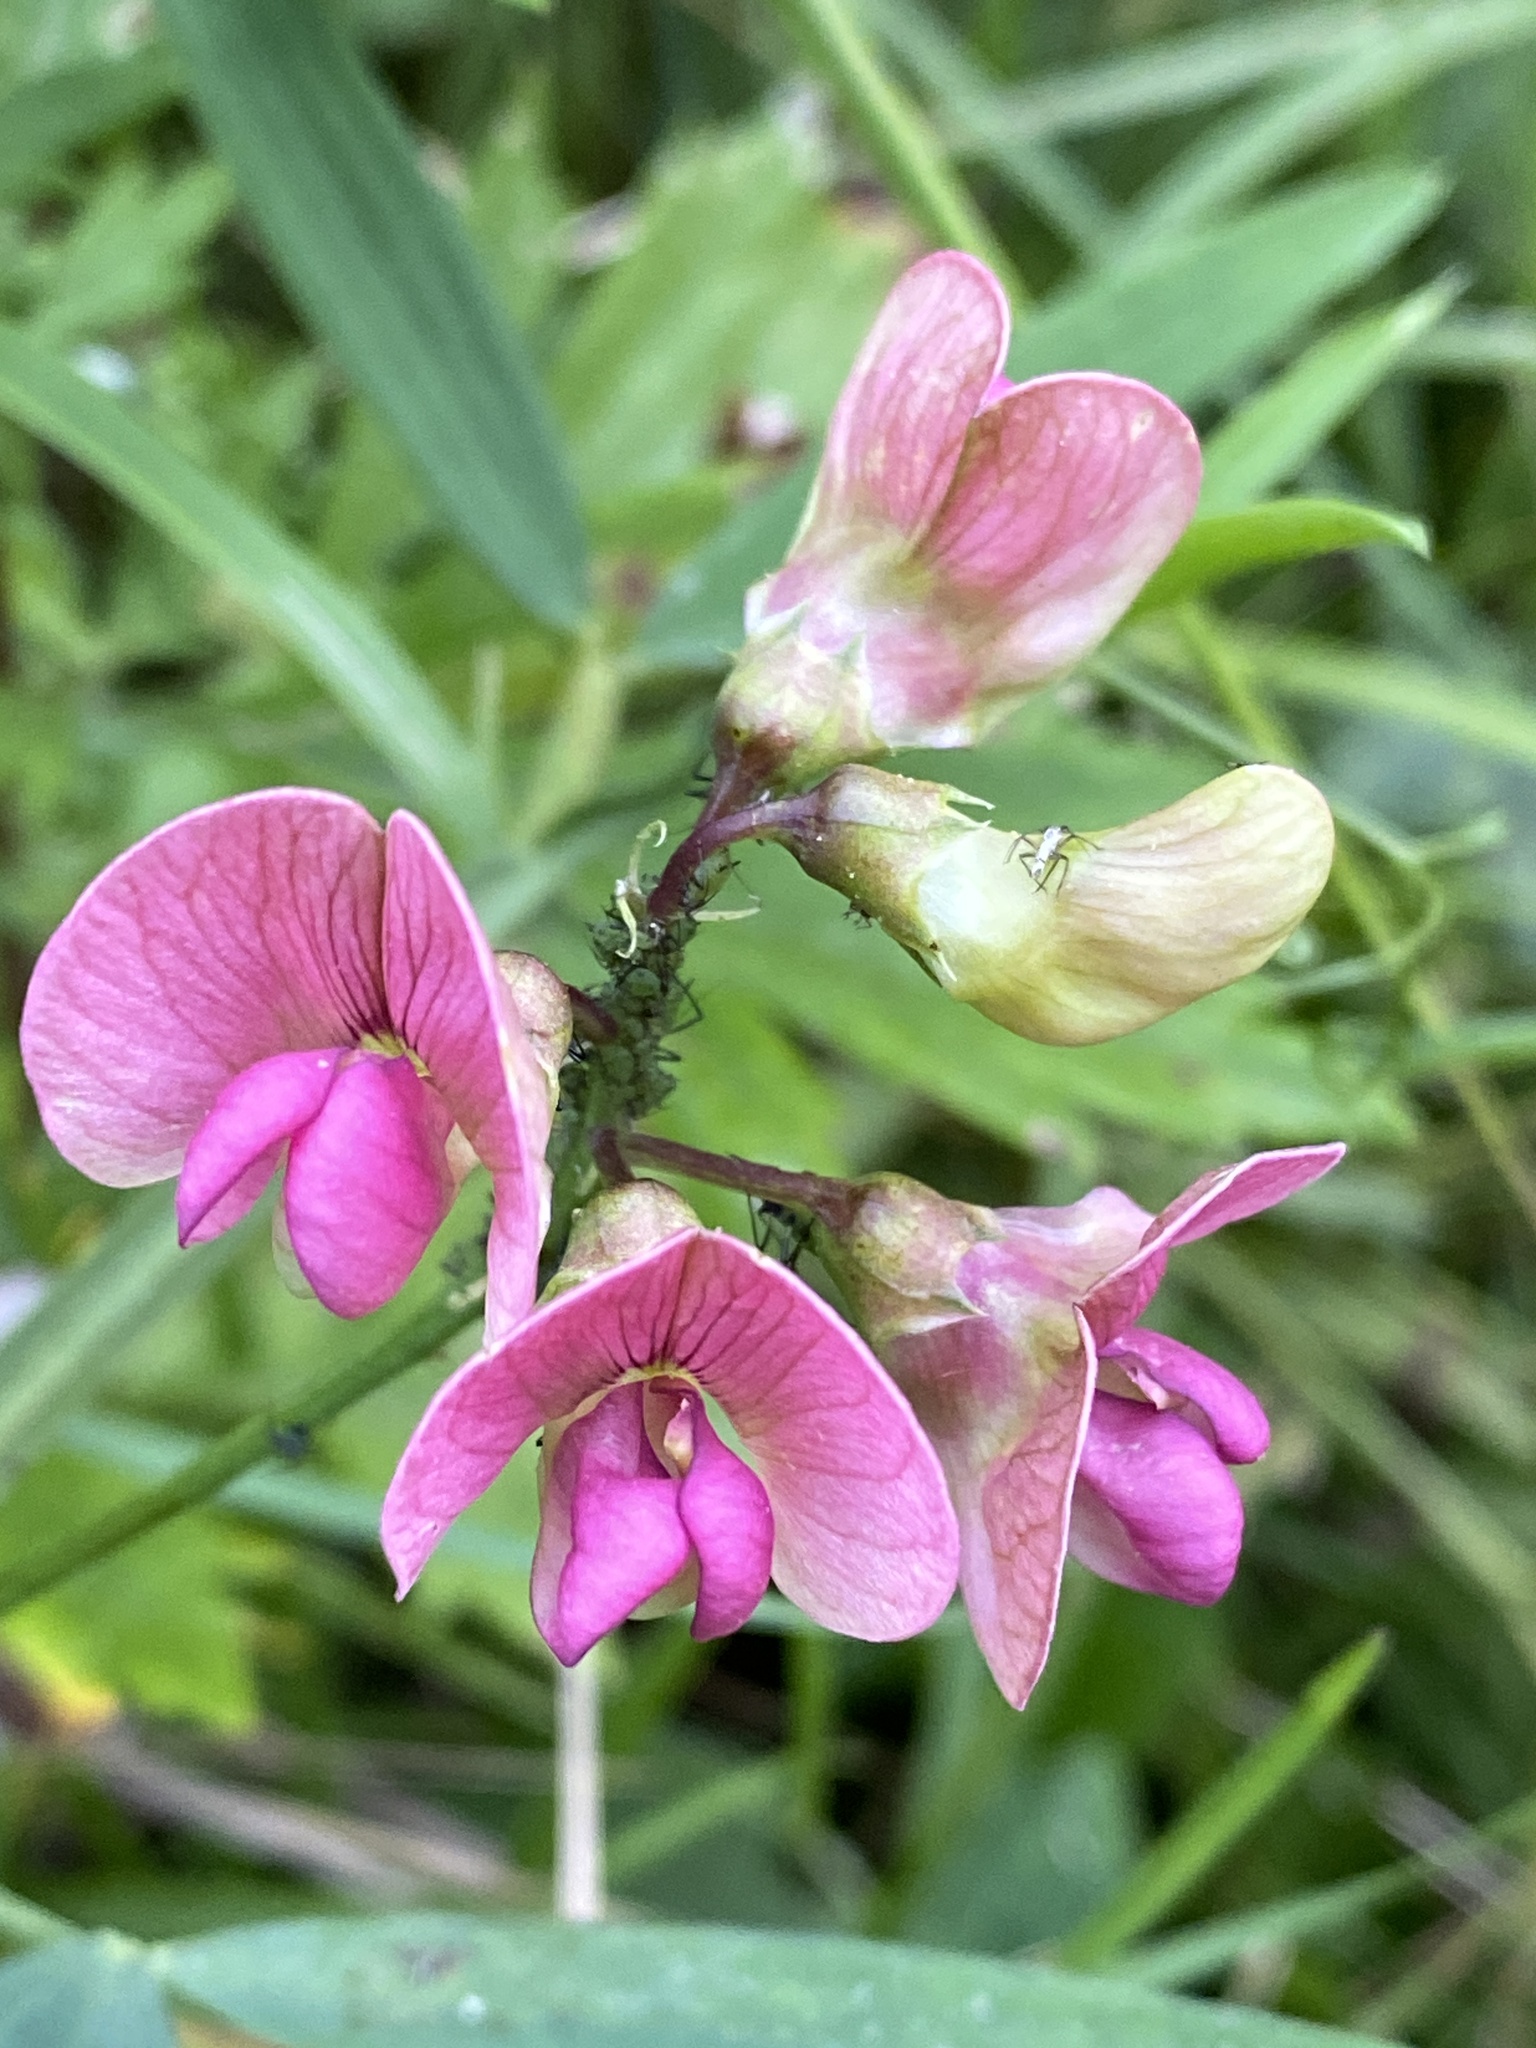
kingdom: Plantae
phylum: Tracheophyta
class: Magnoliopsida
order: Fabales
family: Fabaceae
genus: Lathyrus
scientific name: Lathyrus sylvestris
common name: Flat pea
